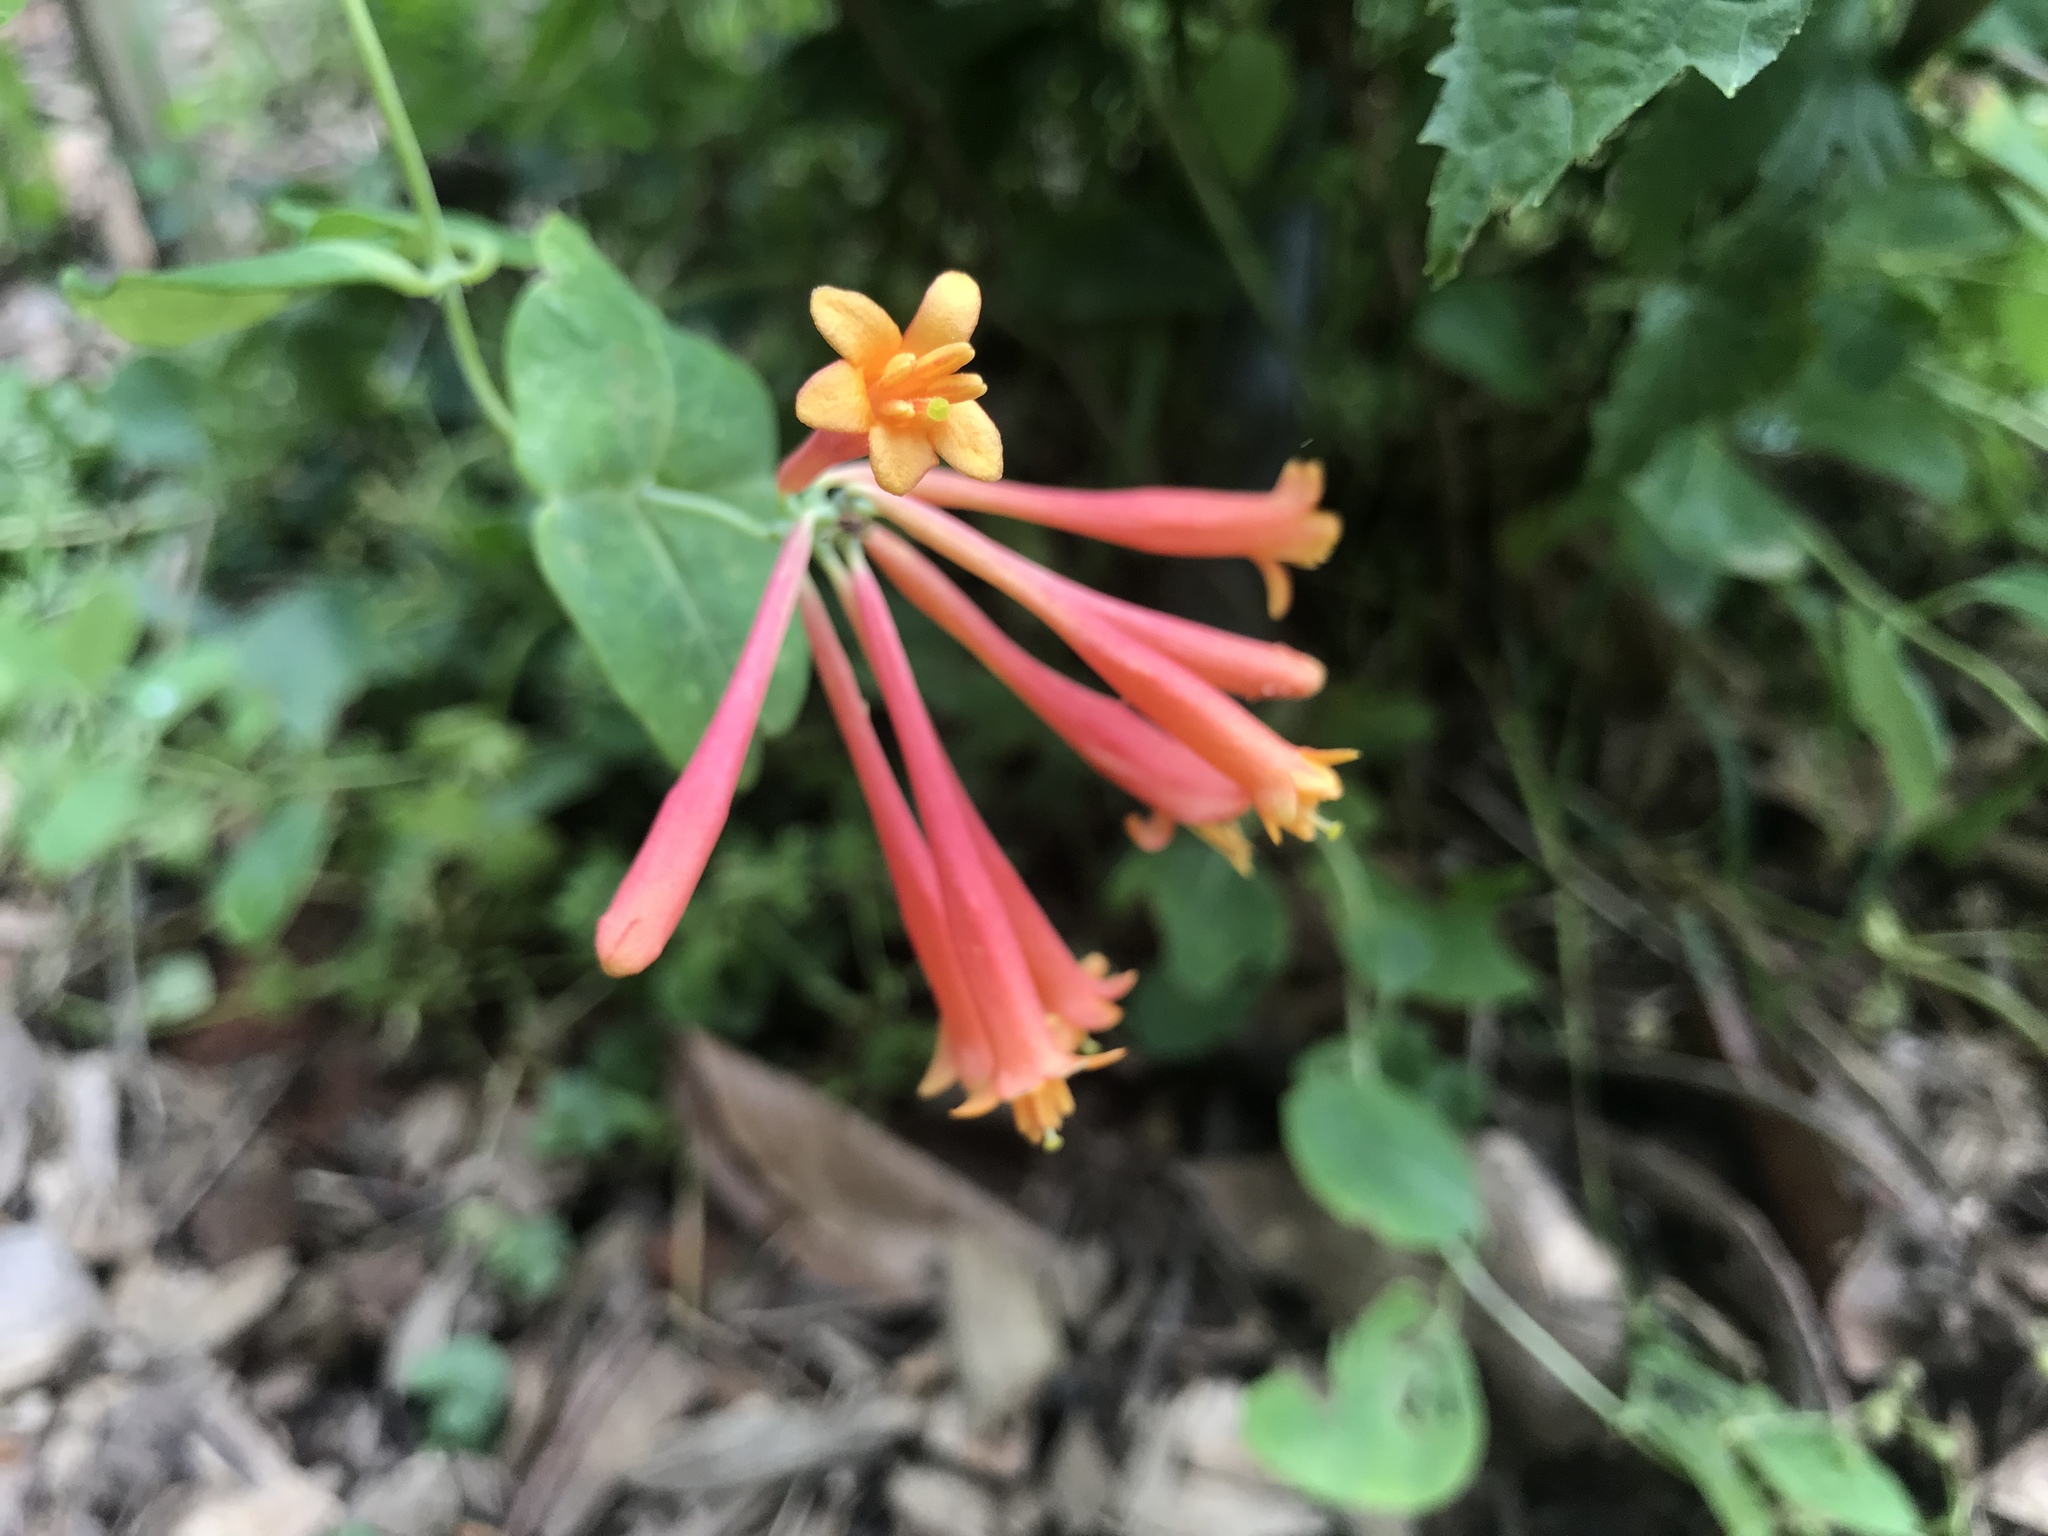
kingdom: Plantae
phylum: Tracheophyta
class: Magnoliopsida
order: Dipsacales
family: Caprifoliaceae
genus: Lonicera
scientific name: Lonicera sempervirens
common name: Coral honeysuckle
